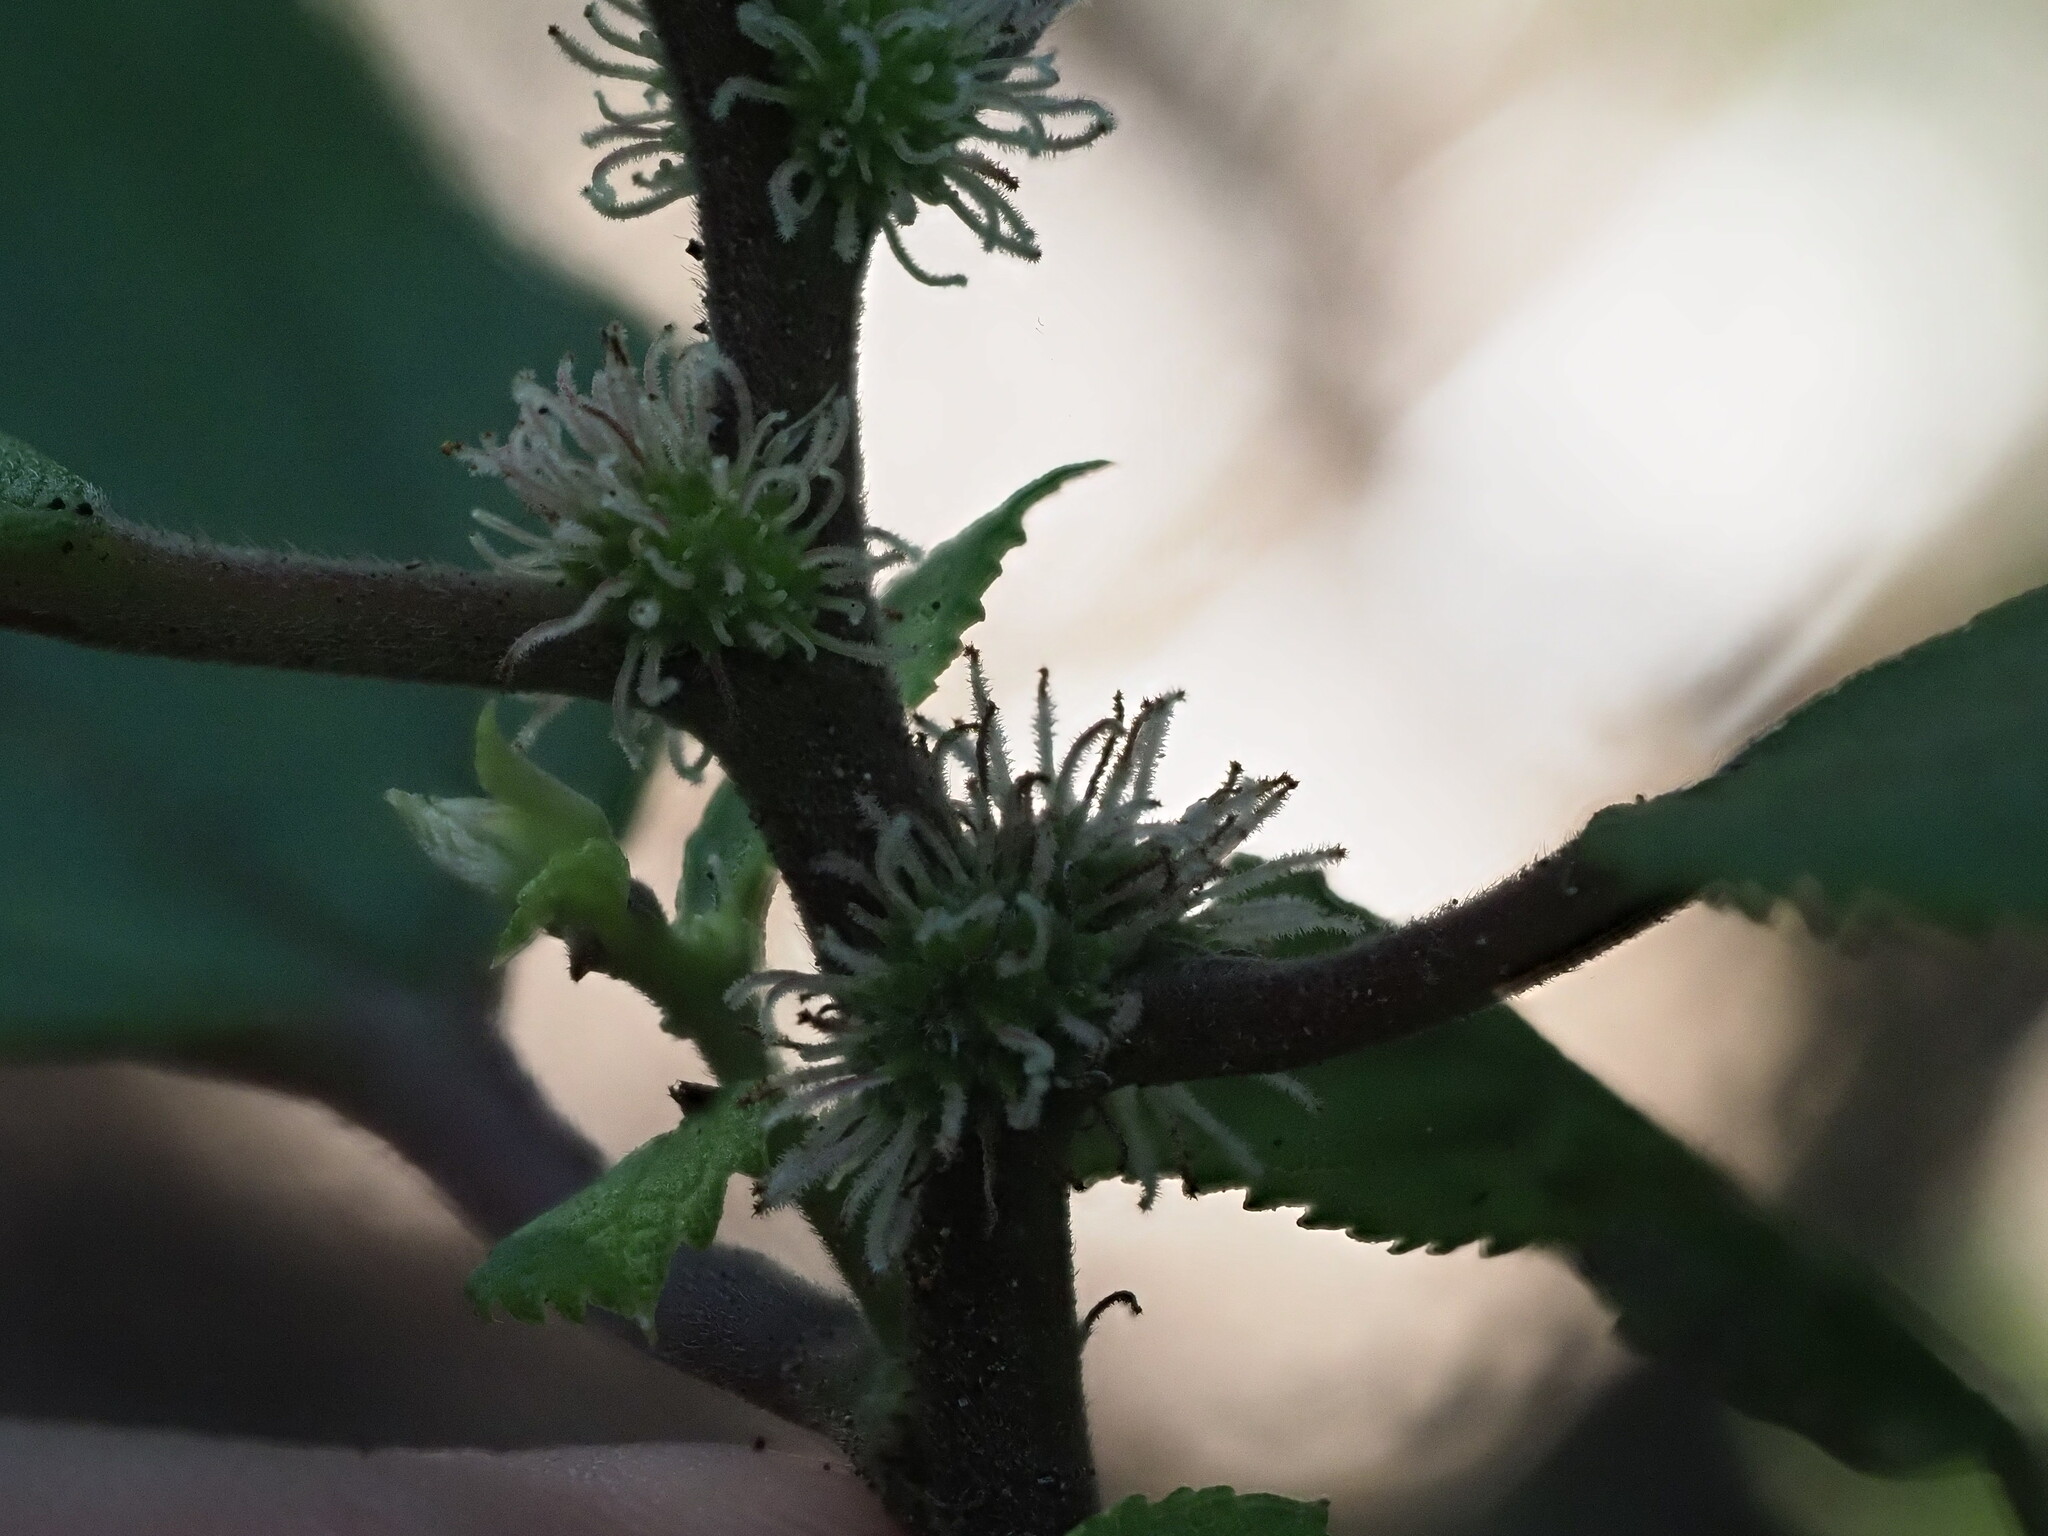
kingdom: Plantae
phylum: Tracheophyta
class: Magnoliopsida
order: Rosales
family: Urticaceae
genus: Pipturus
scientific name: Pipturus albidus
